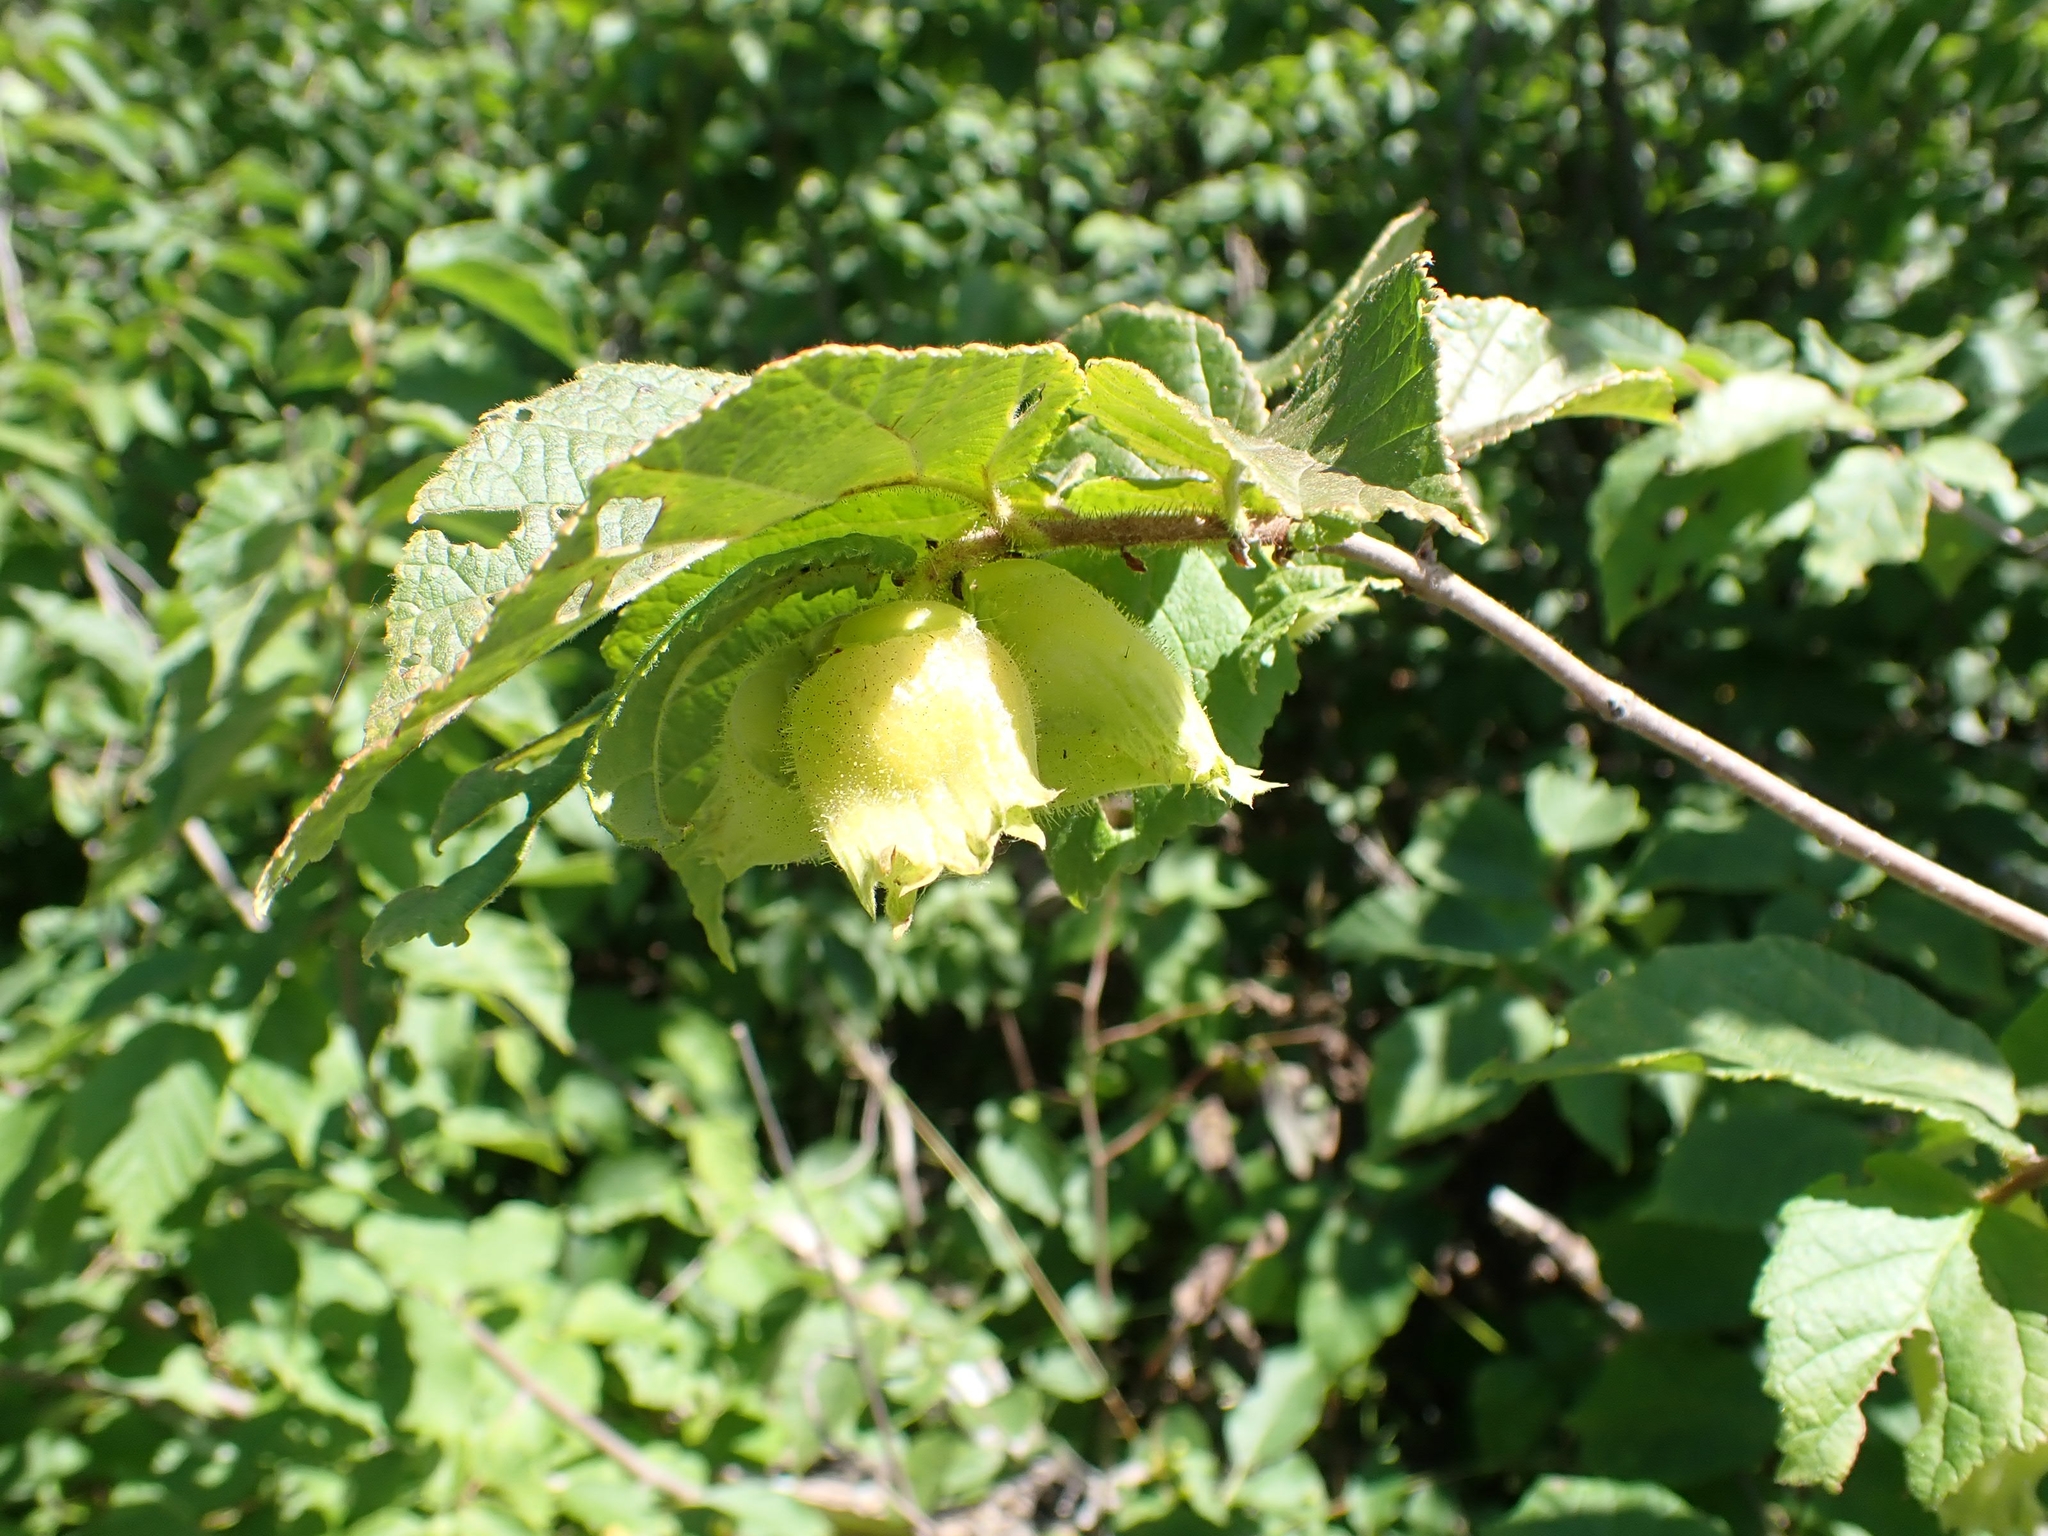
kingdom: Plantae
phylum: Tracheophyta
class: Magnoliopsida
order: Fagales
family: Betulaceae
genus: Corylus
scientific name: Corylus americana
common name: American hazel
